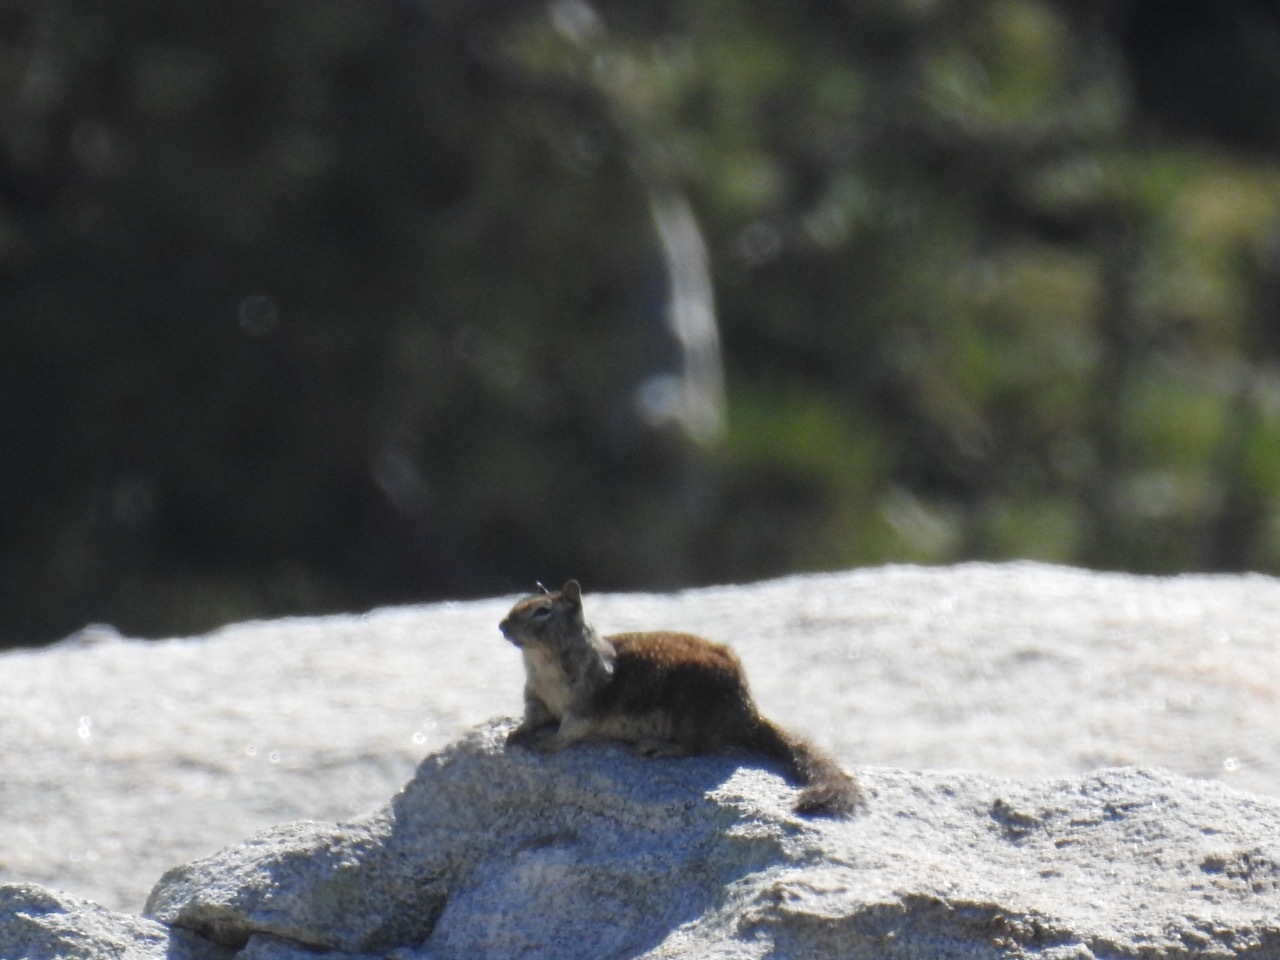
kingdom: Animalia
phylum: Chordata
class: Mammalia
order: Rodentia
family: Sciuridae
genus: Otospermophilus
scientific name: Otospermophilus beecheyi
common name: California ground squirrel
